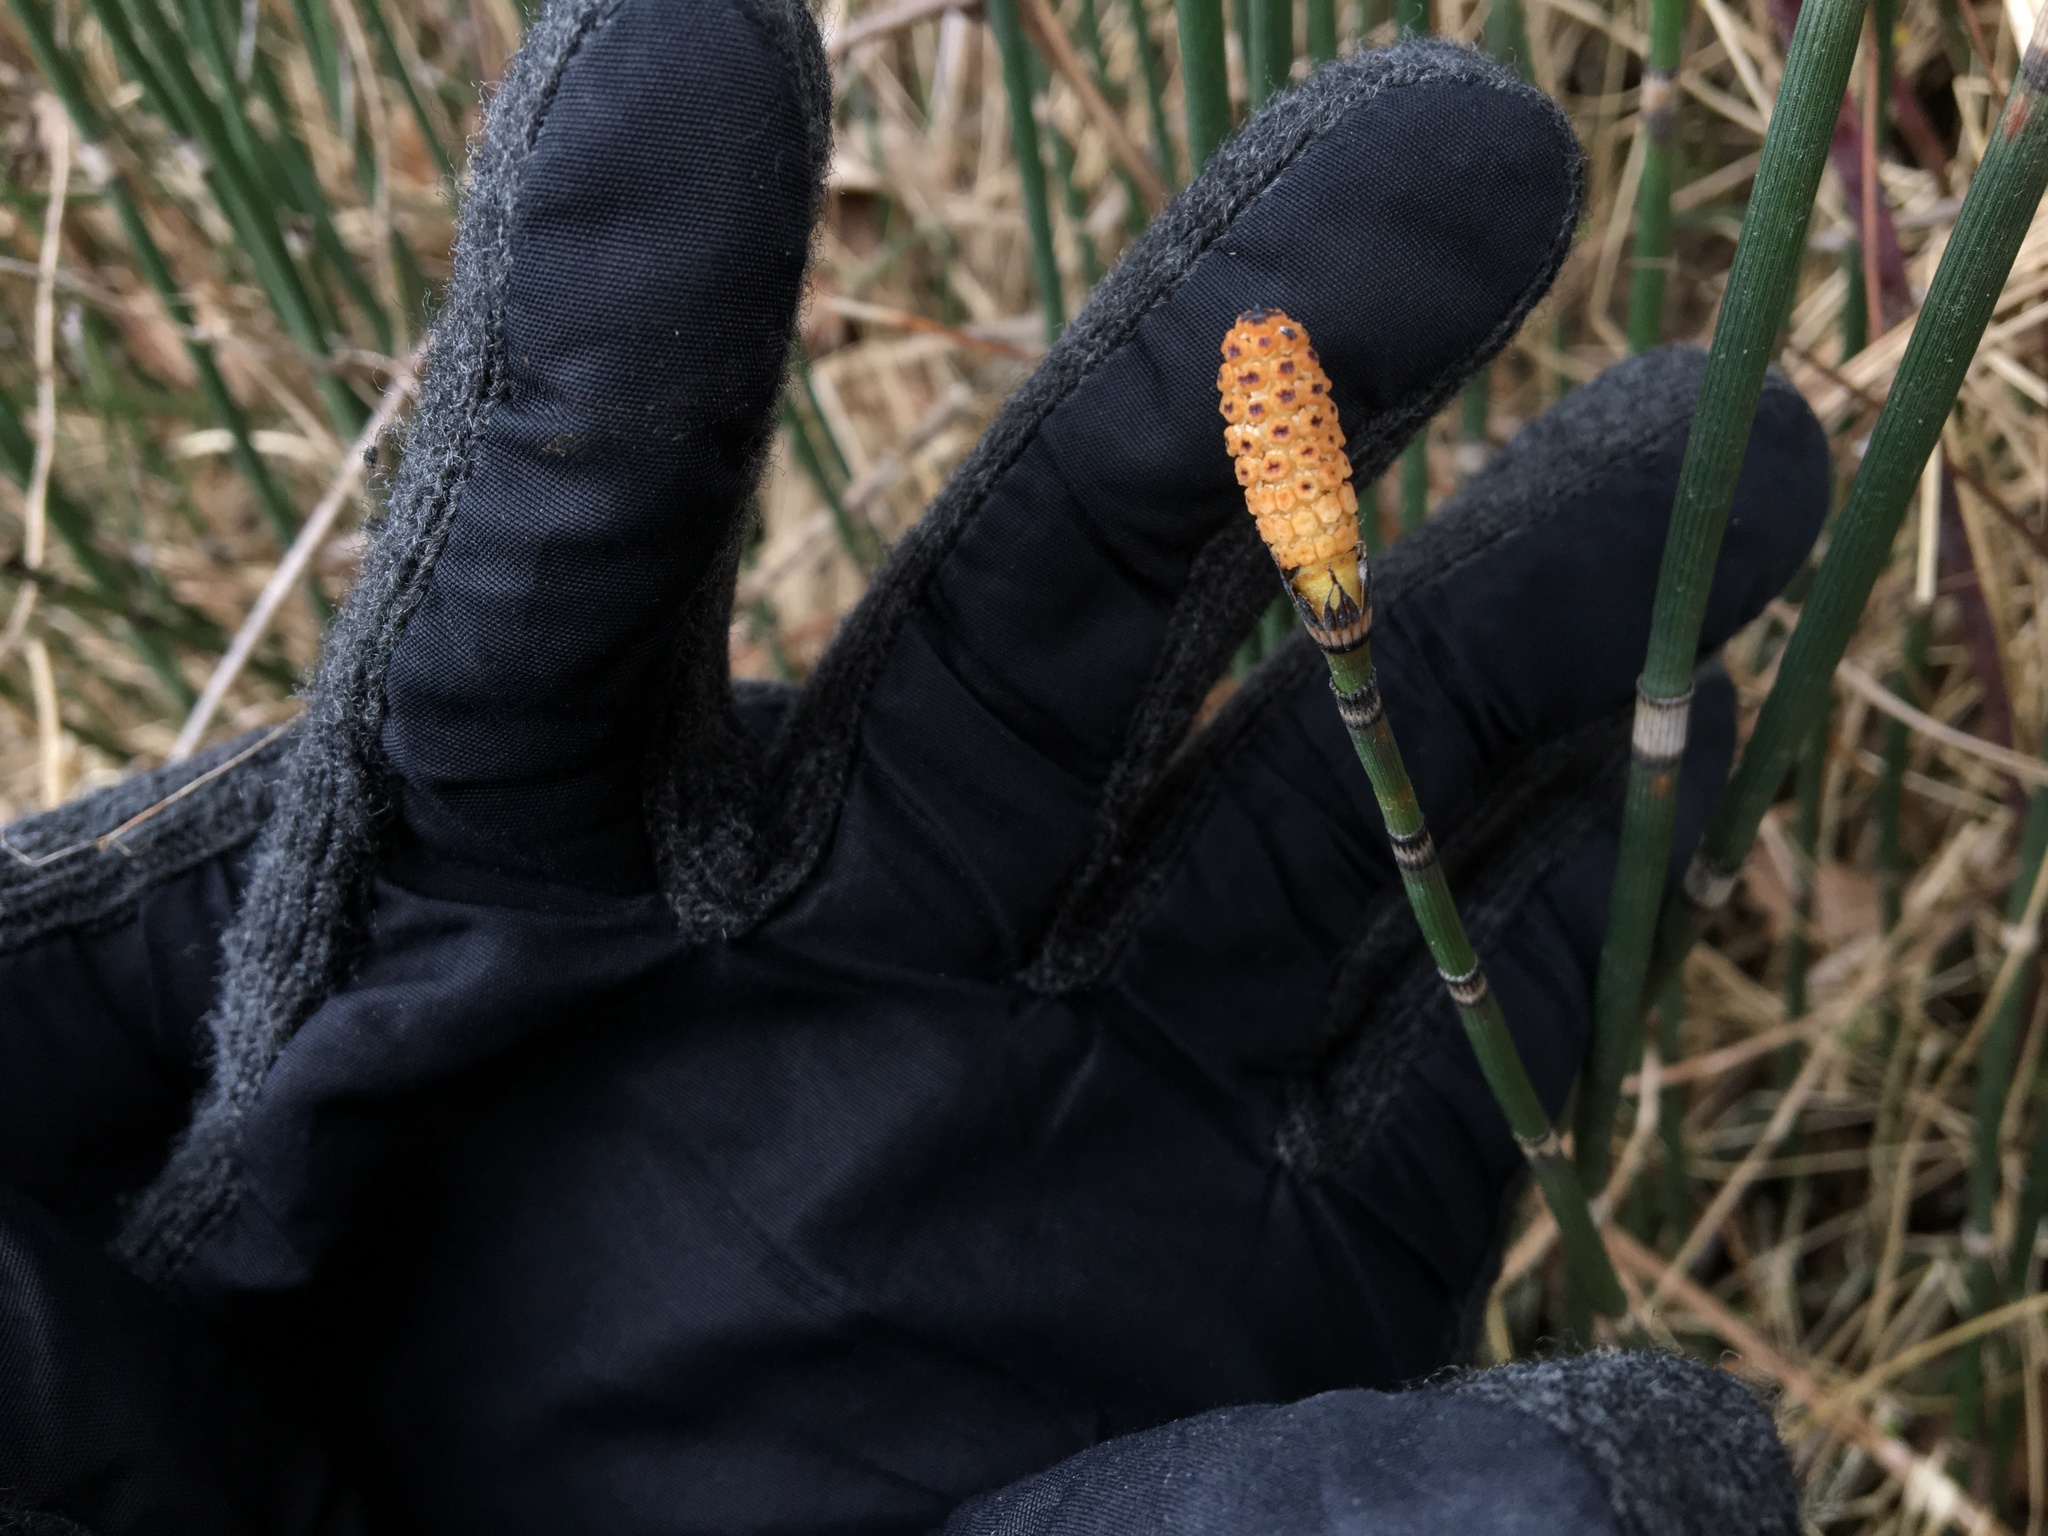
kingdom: Plantae
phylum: Tracheophyta
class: Polypodiopsida
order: Equisetales
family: Equisetaceae
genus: Equisetum
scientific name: Equisetum hyemale
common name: Rough horsetail
